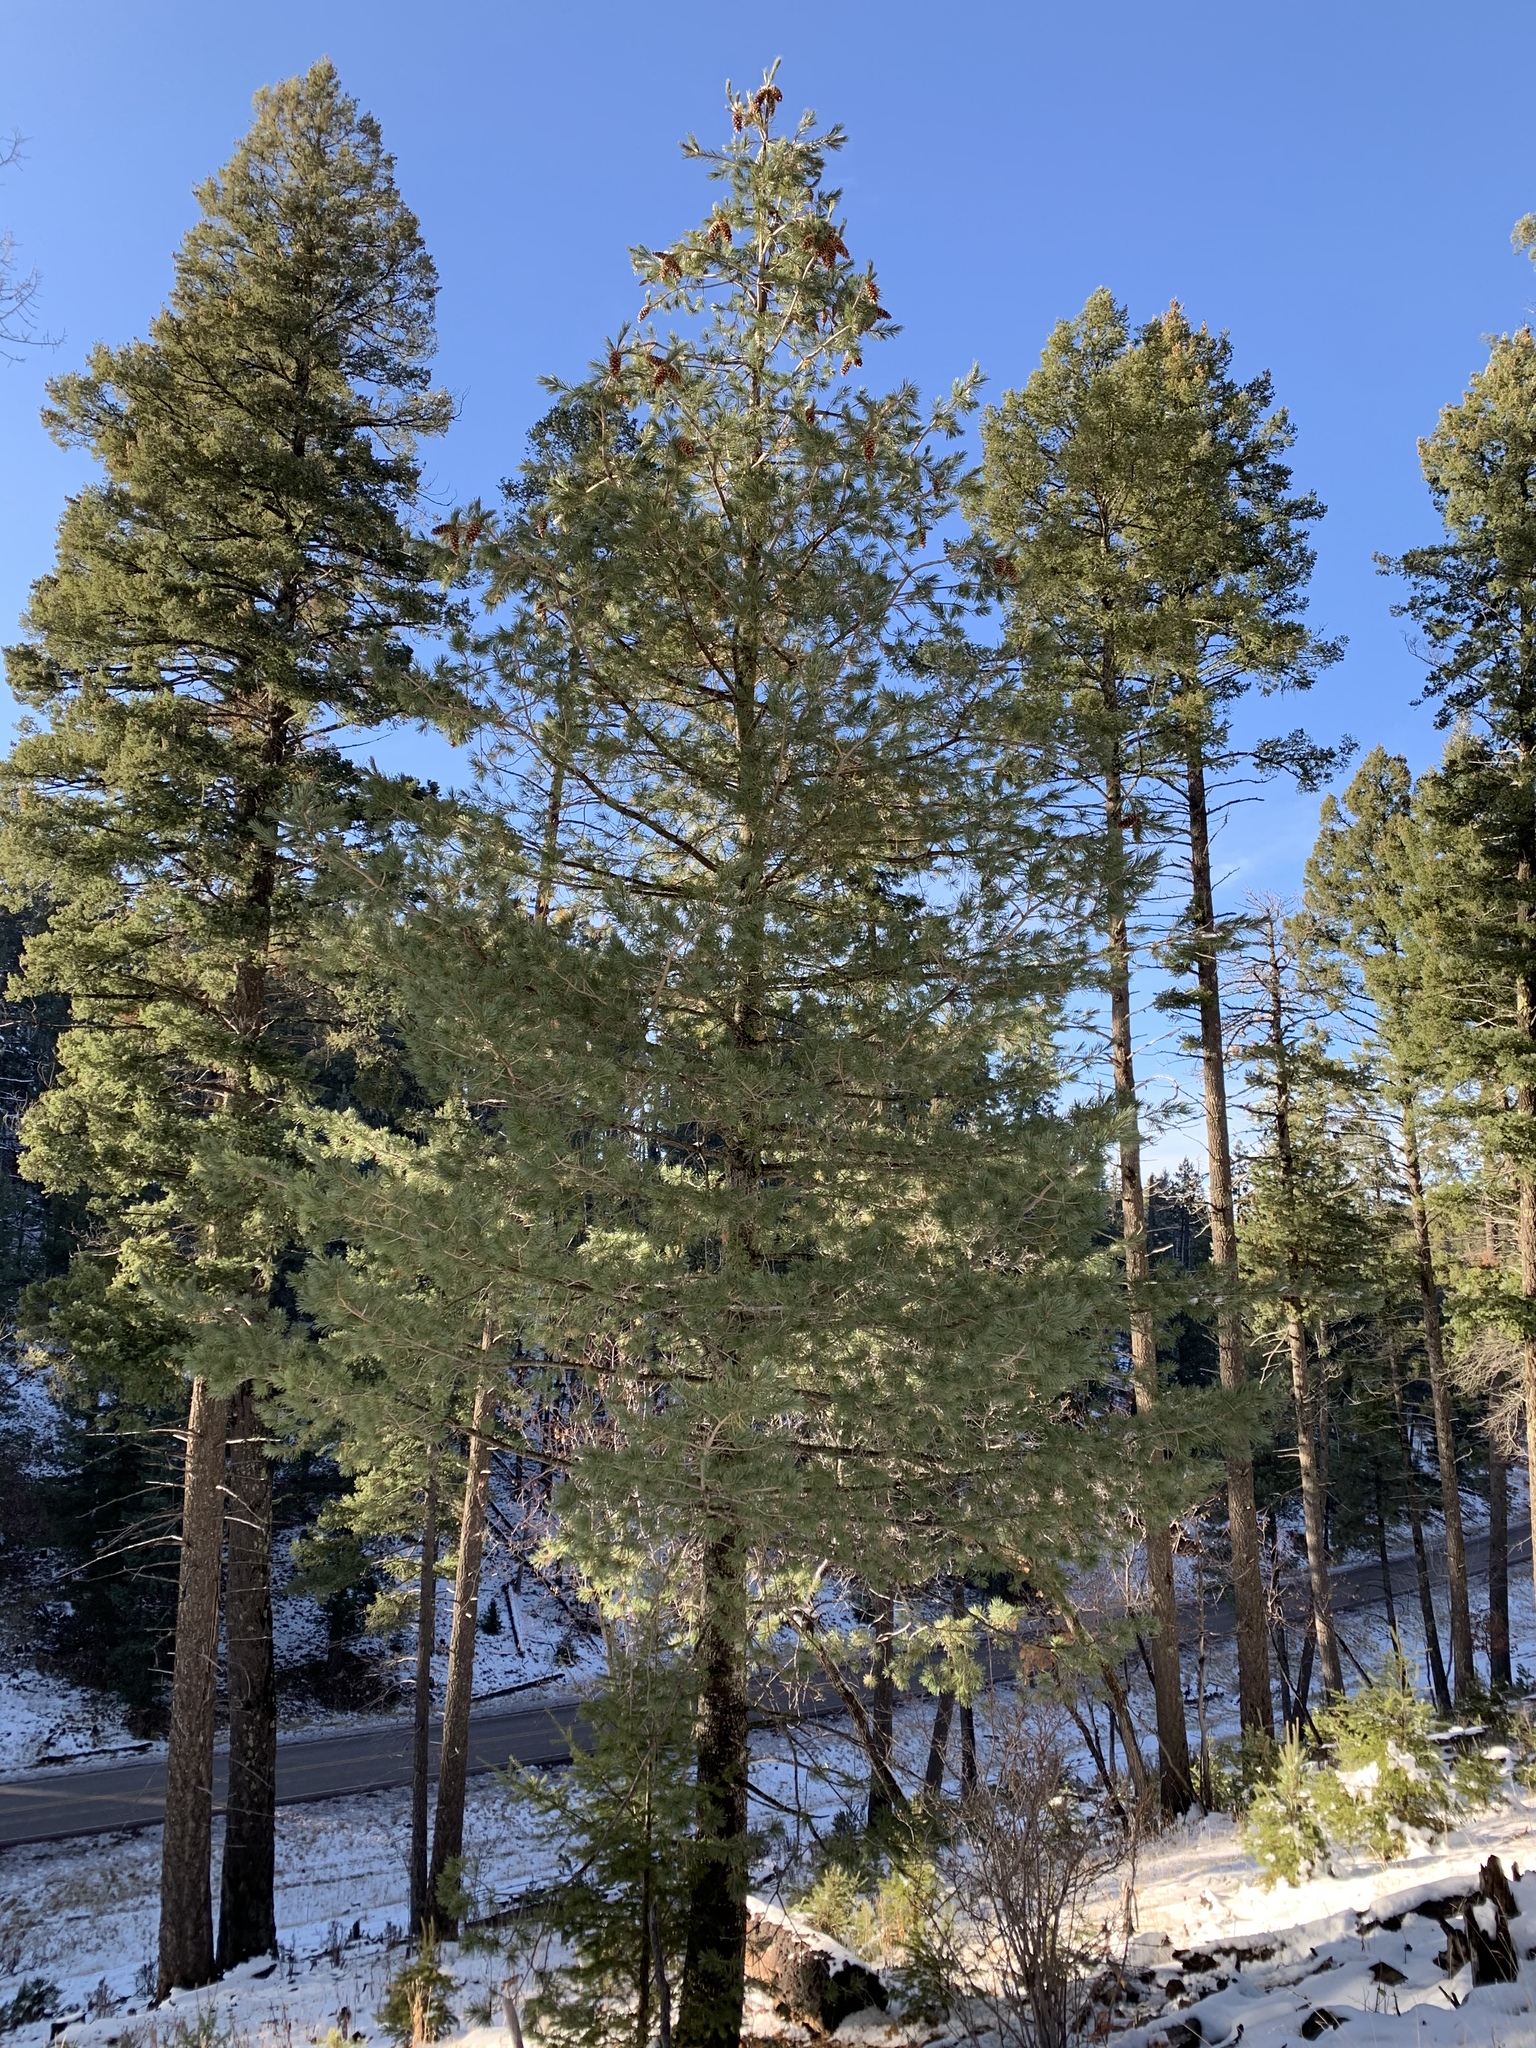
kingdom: Plantae
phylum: Tracheophyta
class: Pinopsida
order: Pinales
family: Pinaceae
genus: Pinus
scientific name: Pinus strobiformis
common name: Southwestern white pine
